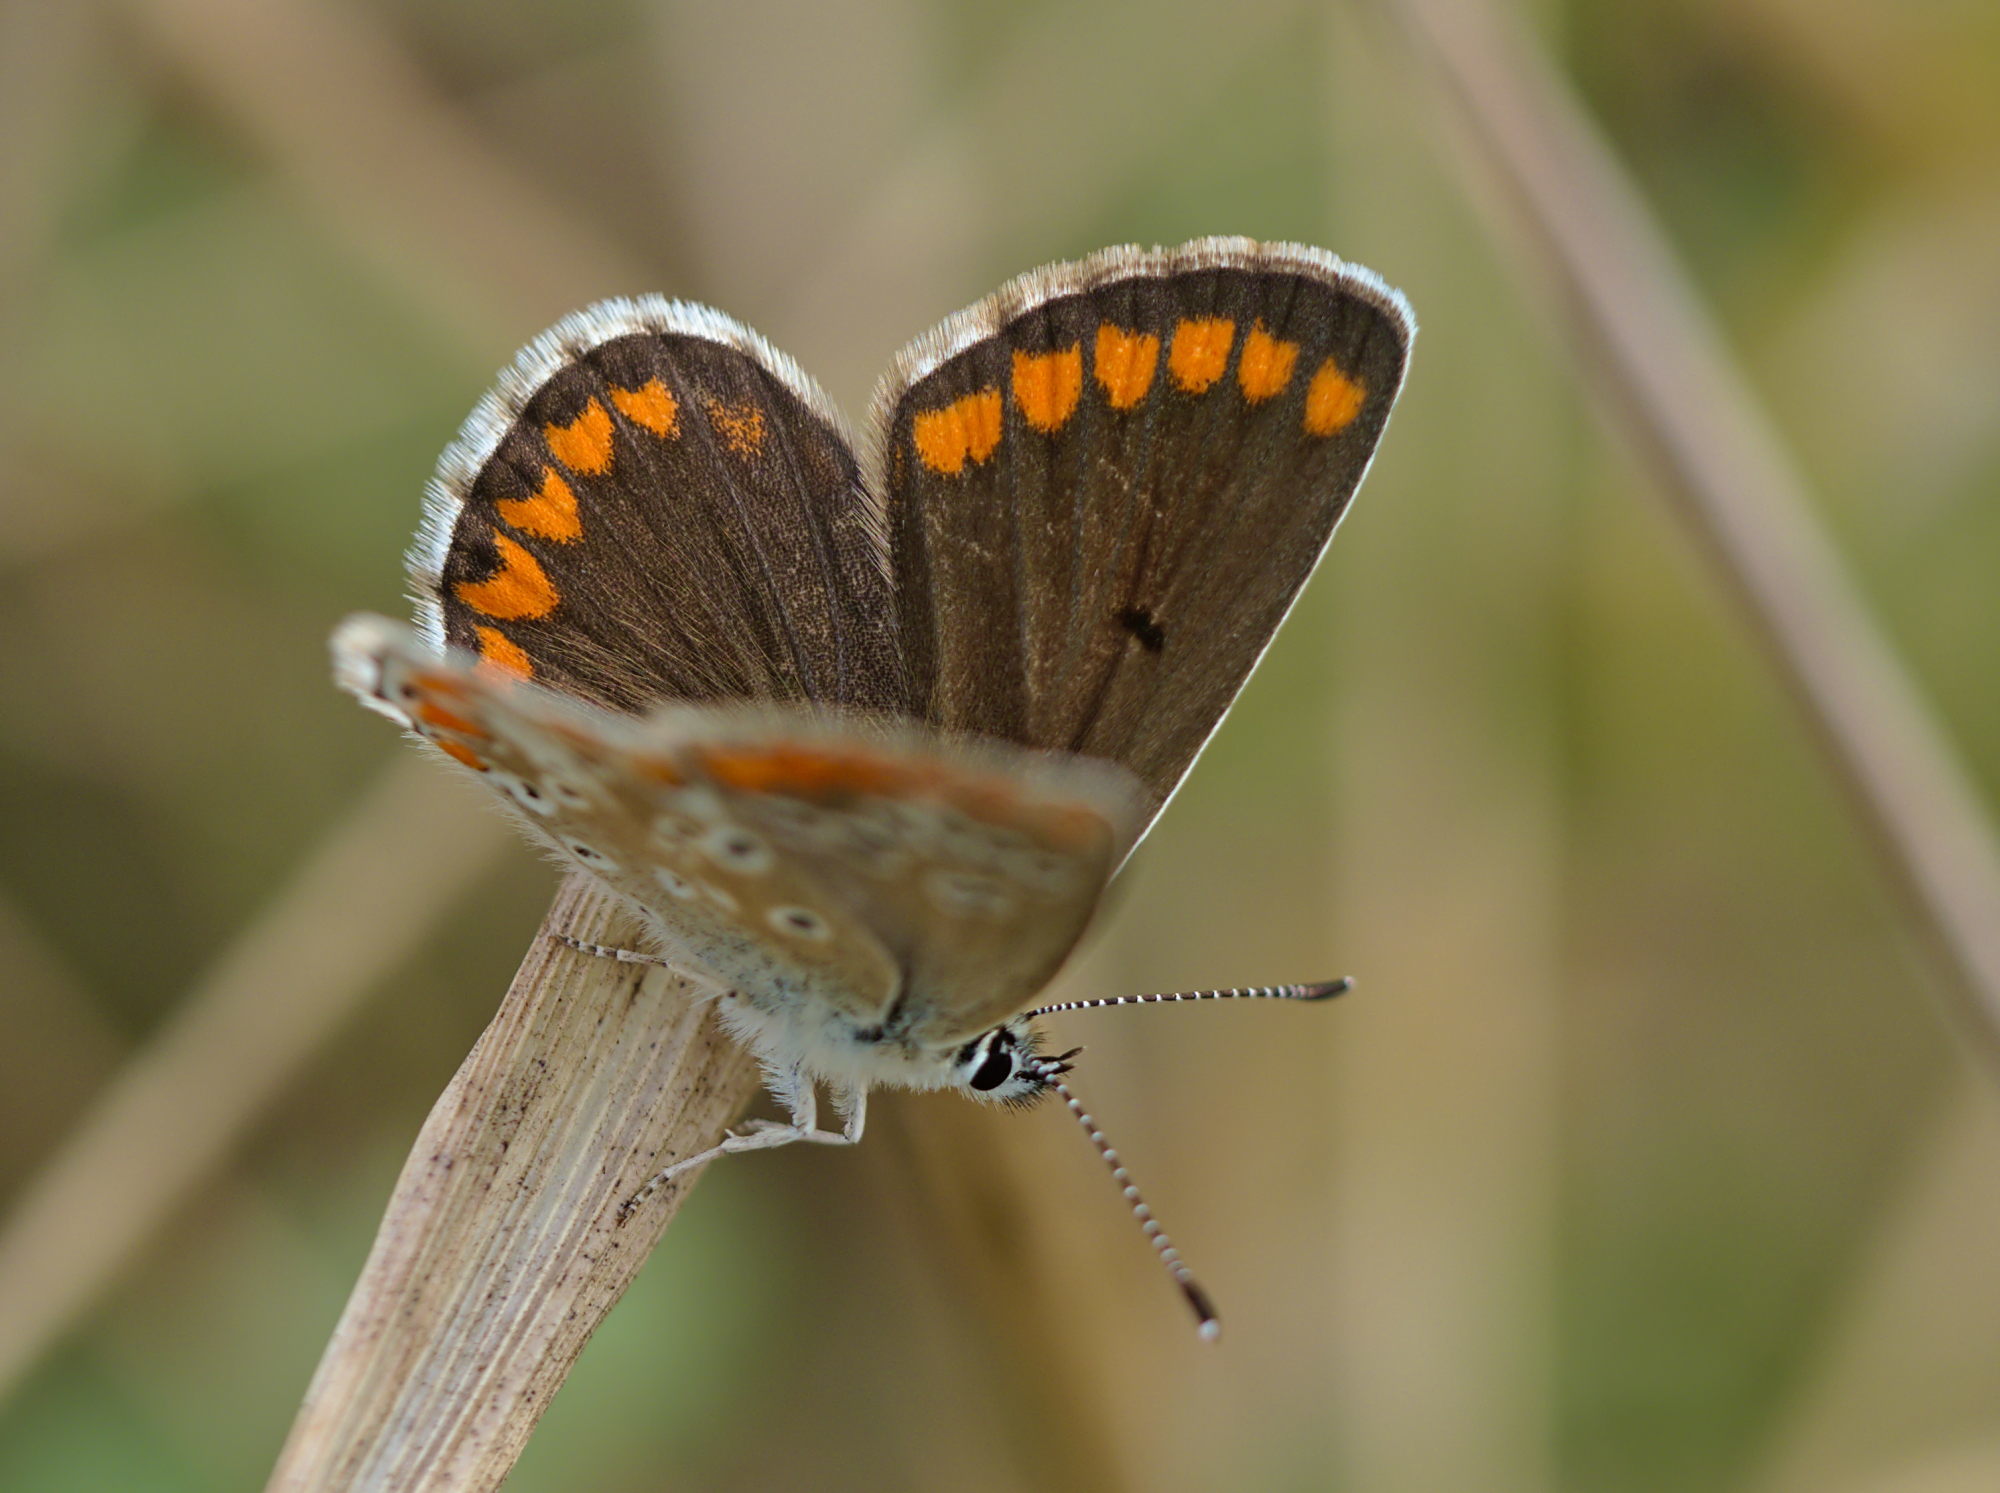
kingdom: Animalia
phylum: Arthropoda
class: Insecta
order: Lepidoptera
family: Lycaenidae
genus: Aricia
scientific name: Aricia agestis
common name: Brown argus
